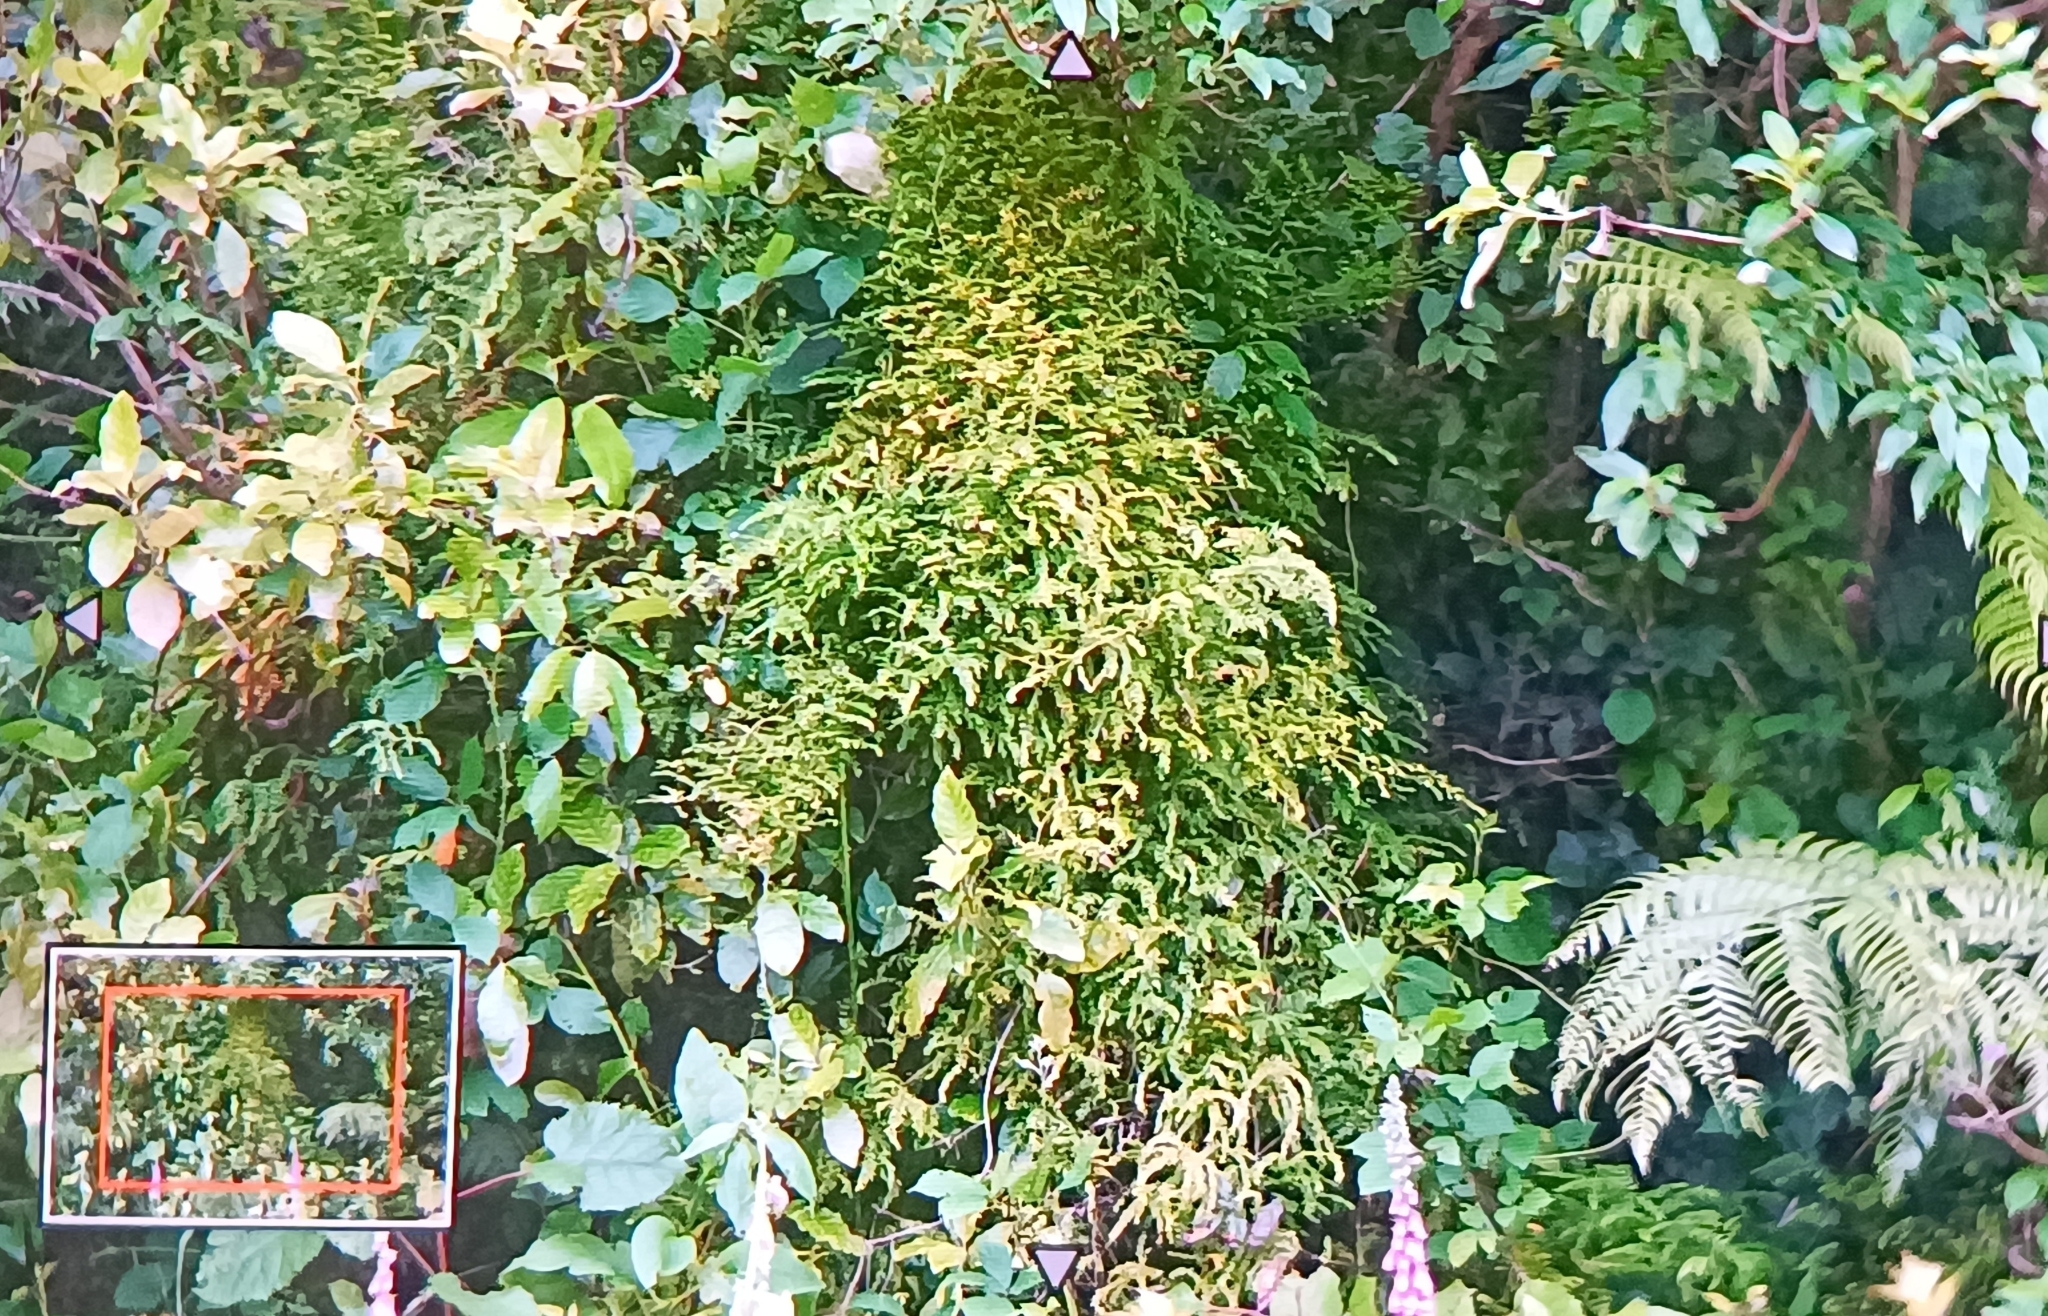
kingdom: Plantae
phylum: Tracheophyta
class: Liliopsida
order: Asparagales
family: Asparagaceae
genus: Asparagus
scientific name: Asparagus scandens
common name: Asparagus-fern
